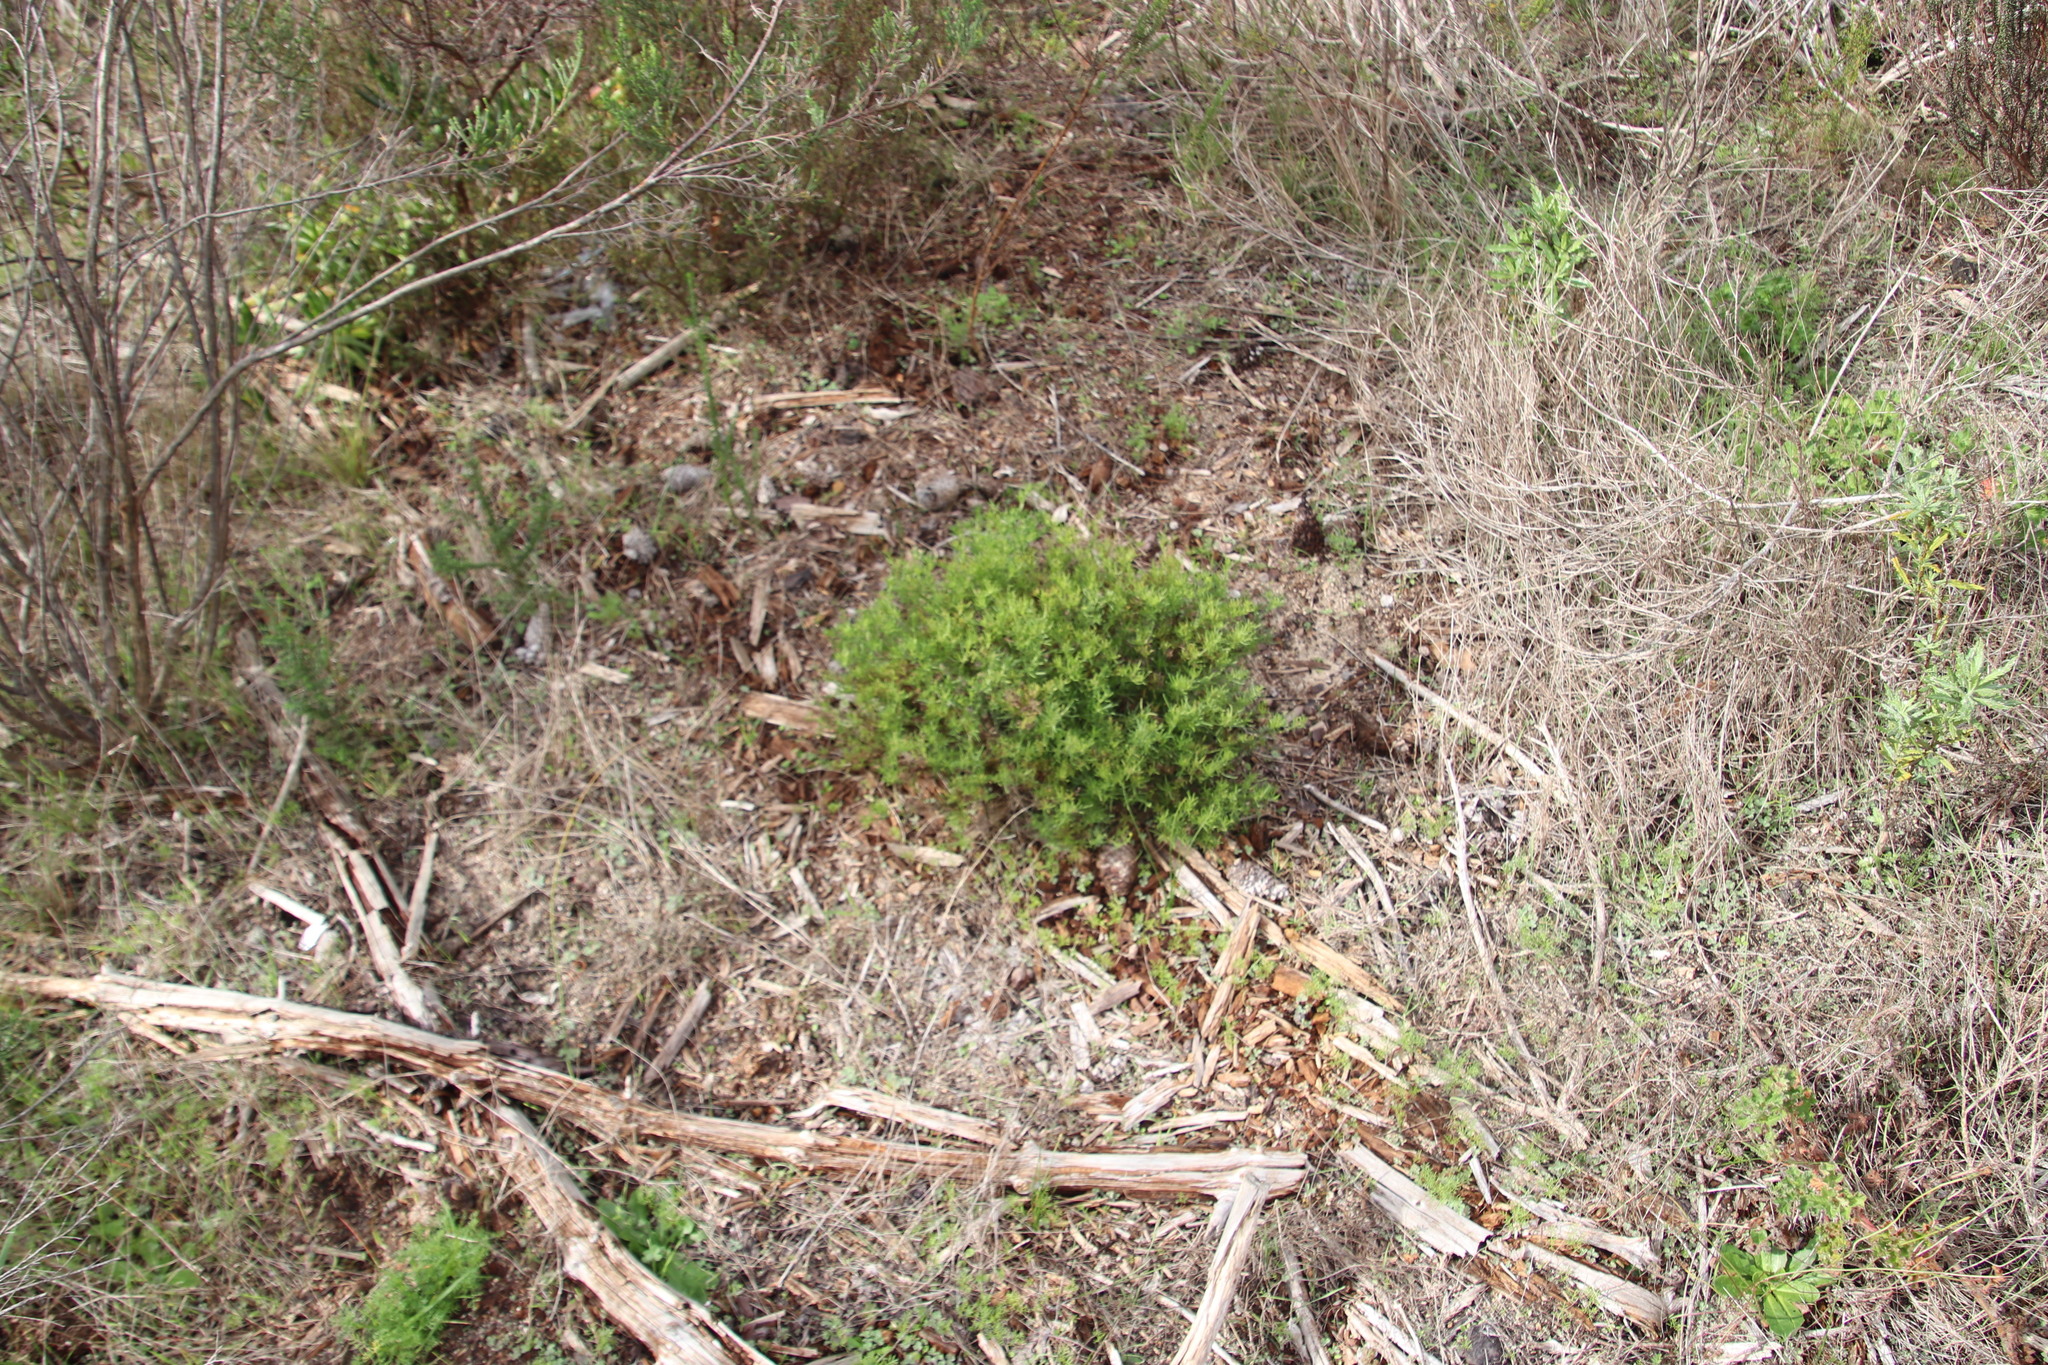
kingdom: Plantae
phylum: Tracheophyta
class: Magnoliopsida
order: Asterales
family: Asteraceae
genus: Senecio
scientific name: Senecio burchellii
